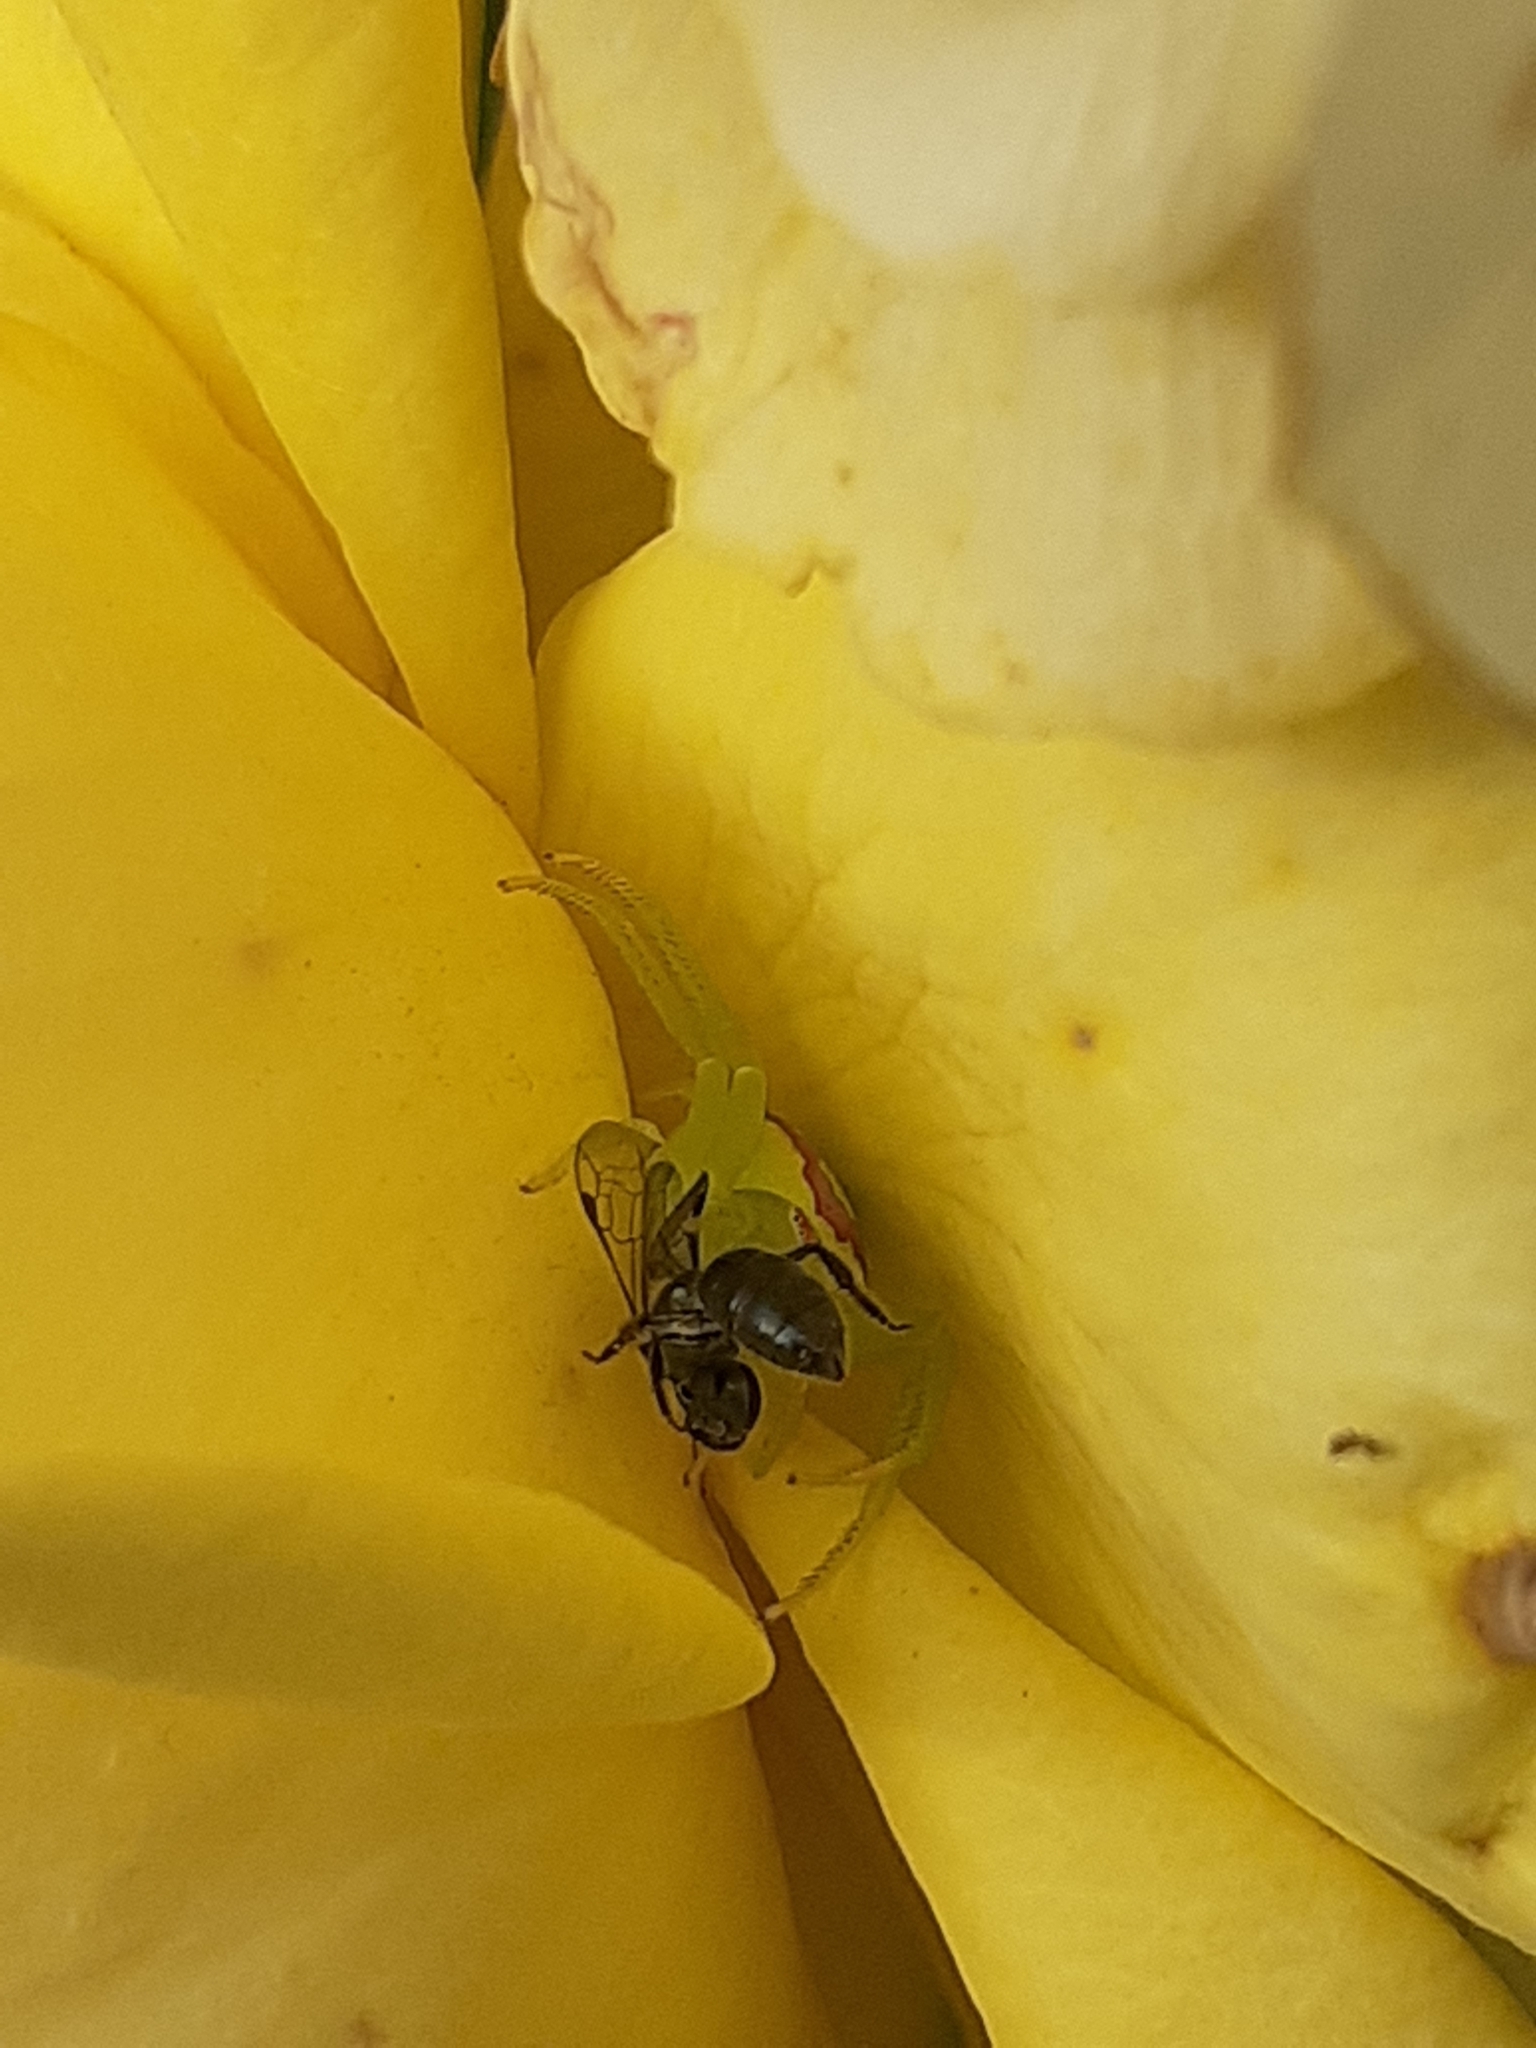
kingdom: Animalia
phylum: Arthropoda
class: Arachnida
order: Araneae
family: Thomisidae
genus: Misumena
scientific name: Misumena spinifera
